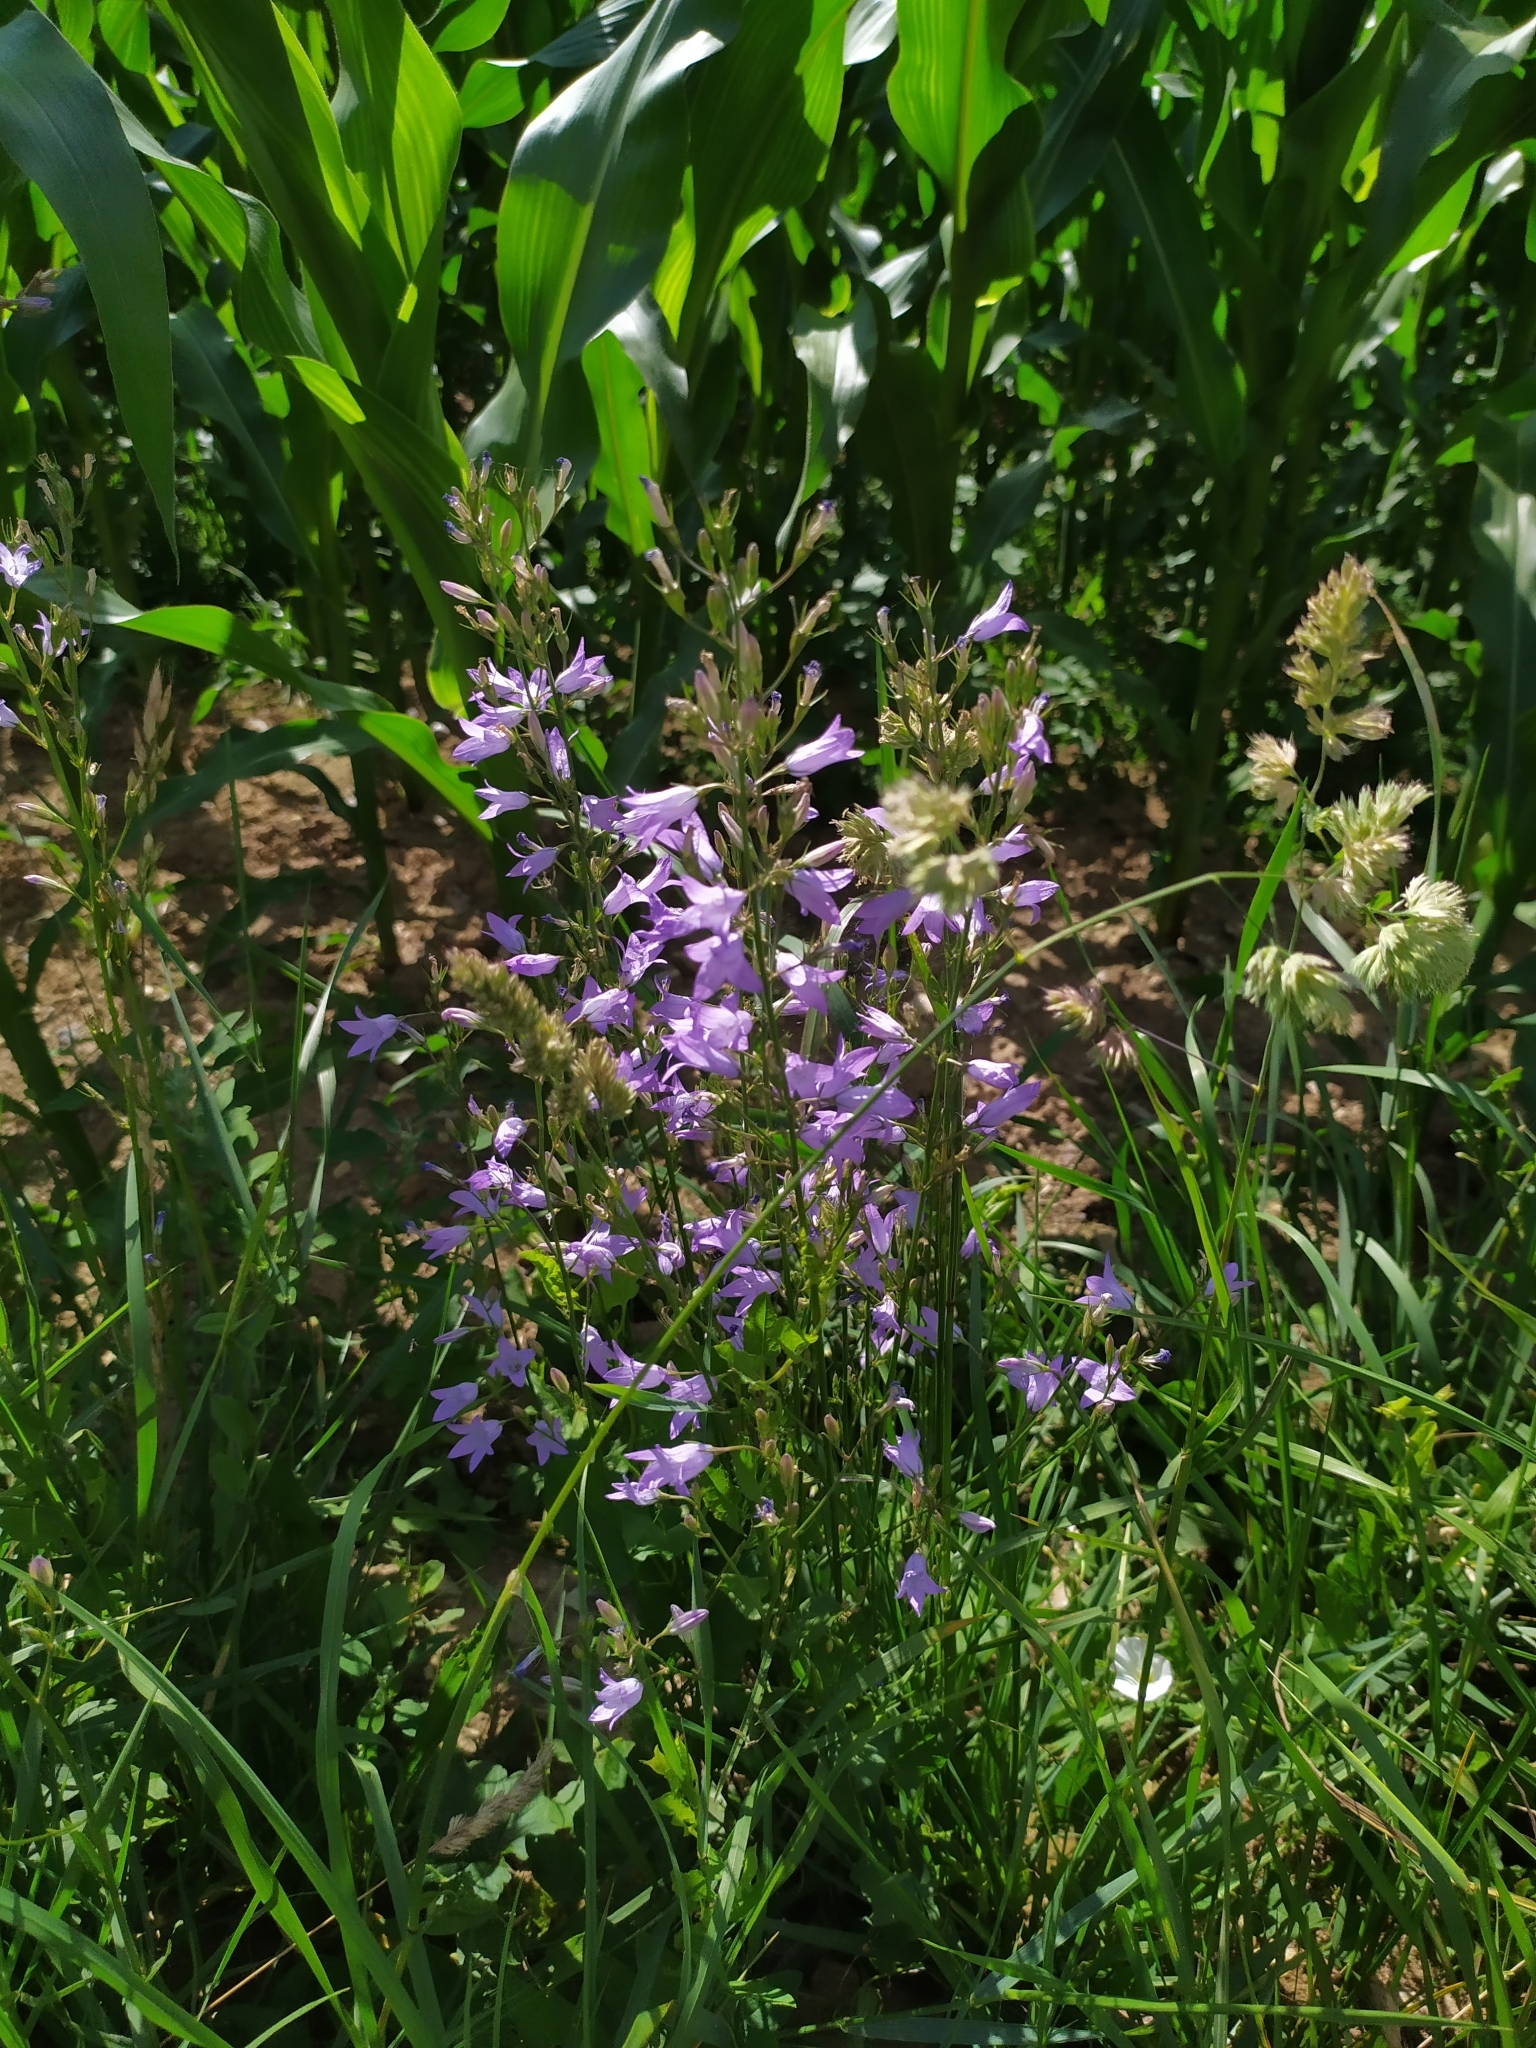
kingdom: Plantae
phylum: Tracheophyta
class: Magnoliopsida
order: Asterales
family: Campanulaceae
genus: Campanula
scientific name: Campanula rapunculus
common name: Rampion bellflower
